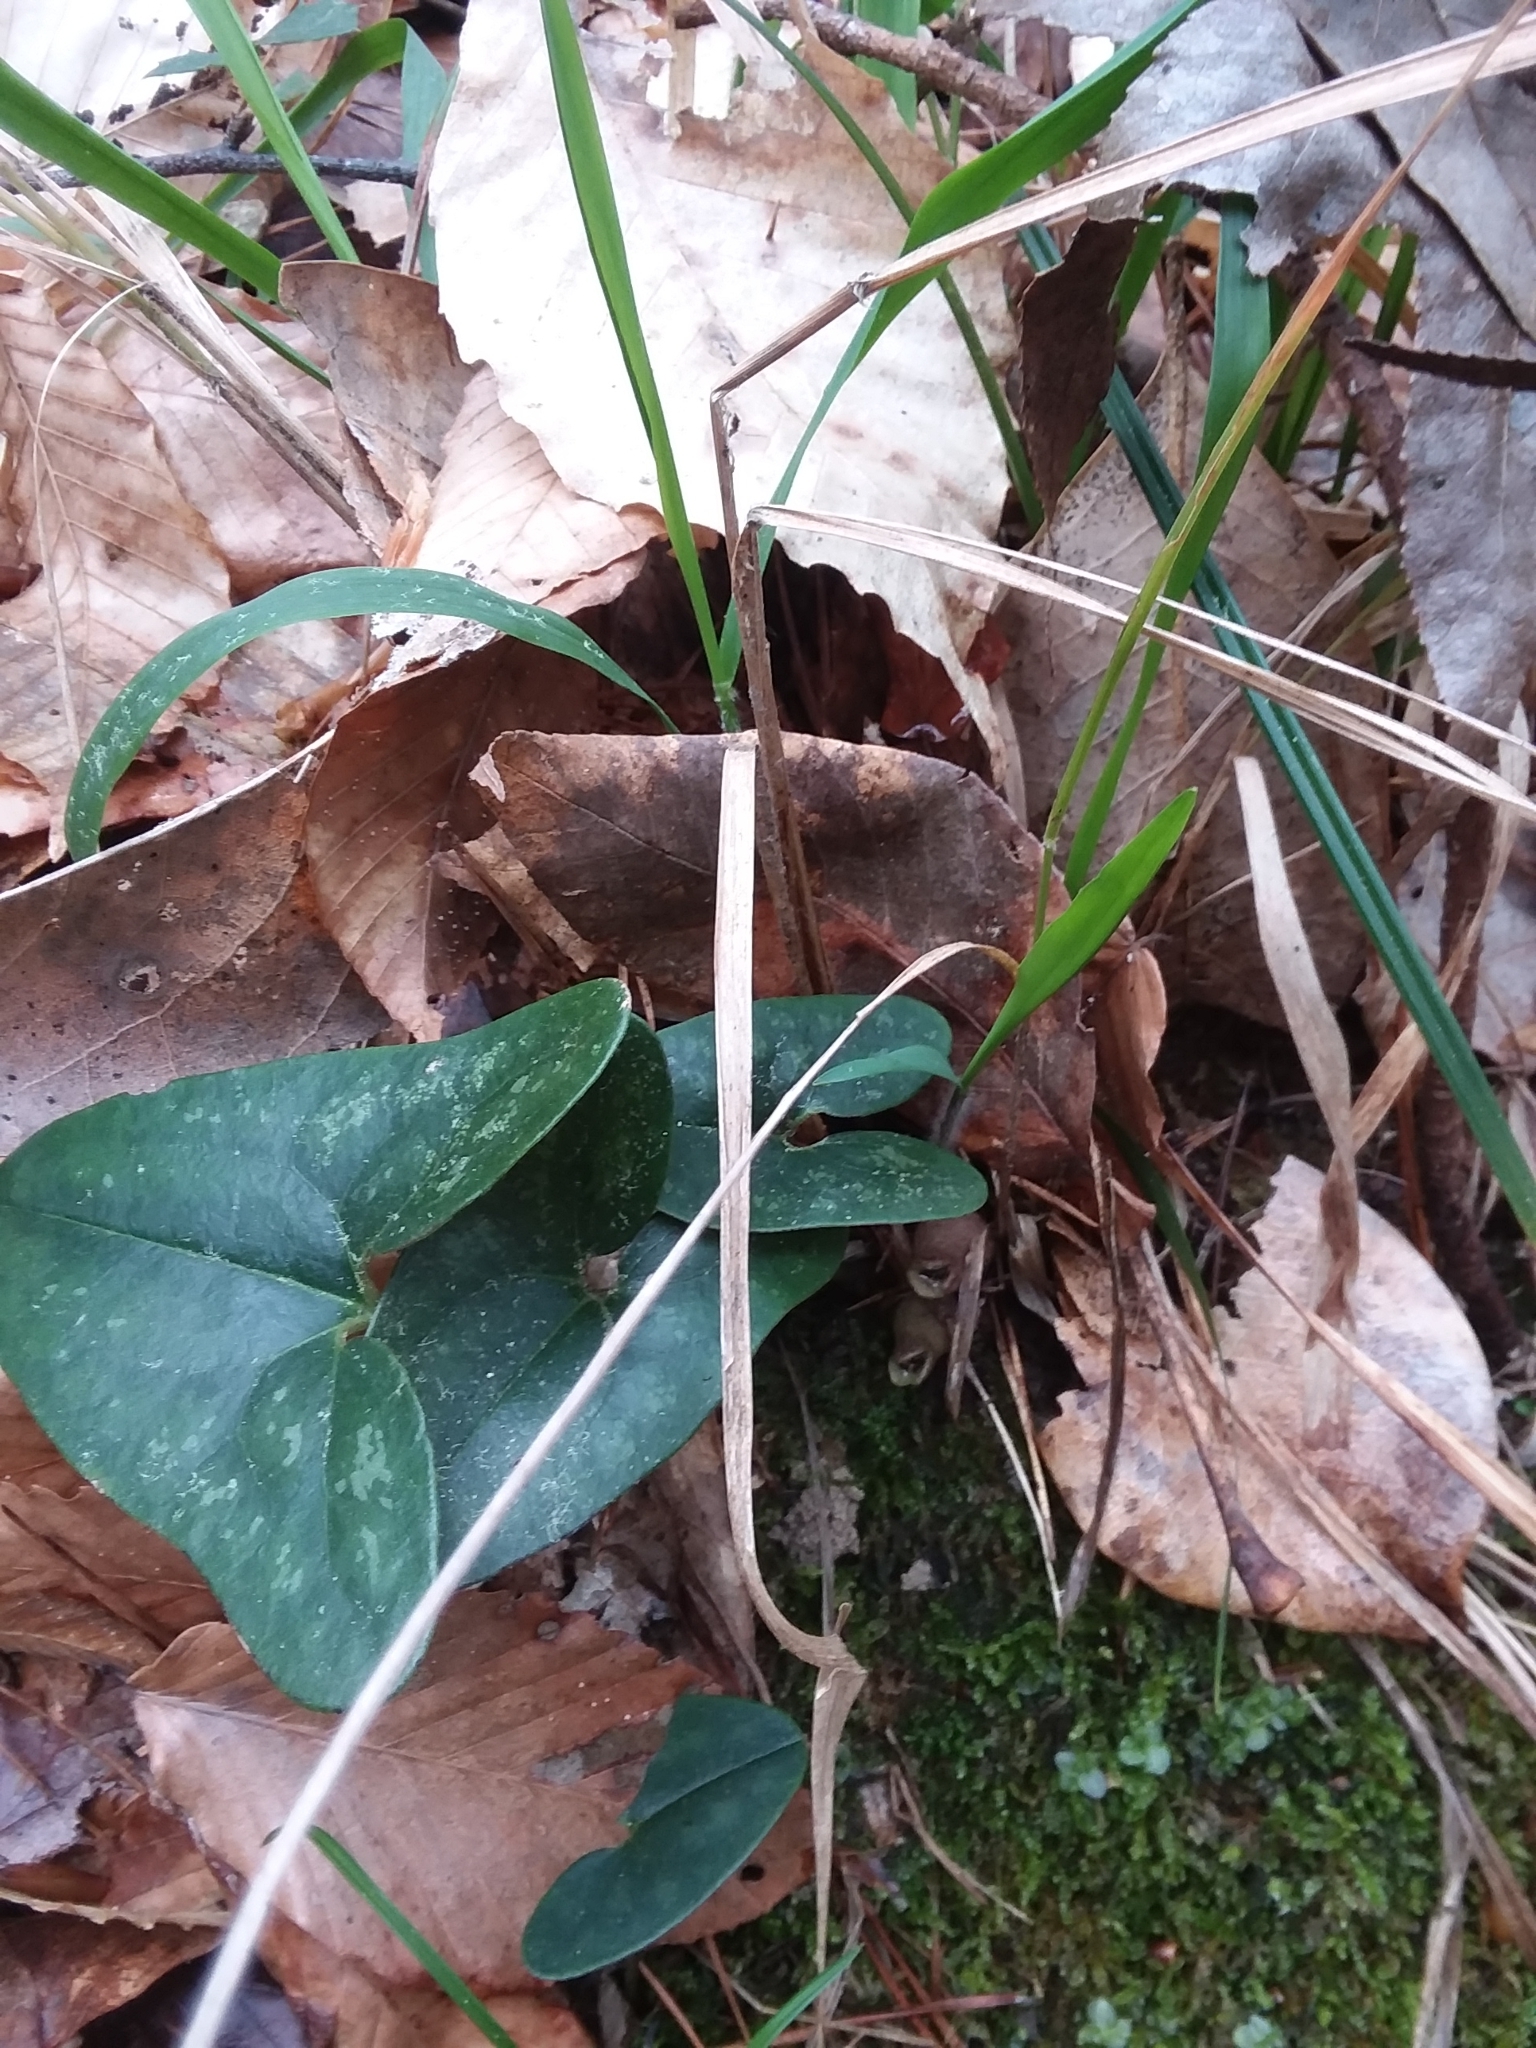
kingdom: Plantae
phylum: Tracheophyta
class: Magnoliopsida
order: Piperales
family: Aristolochiaceae
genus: Hexastylis
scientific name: Hexastylis arifolia
